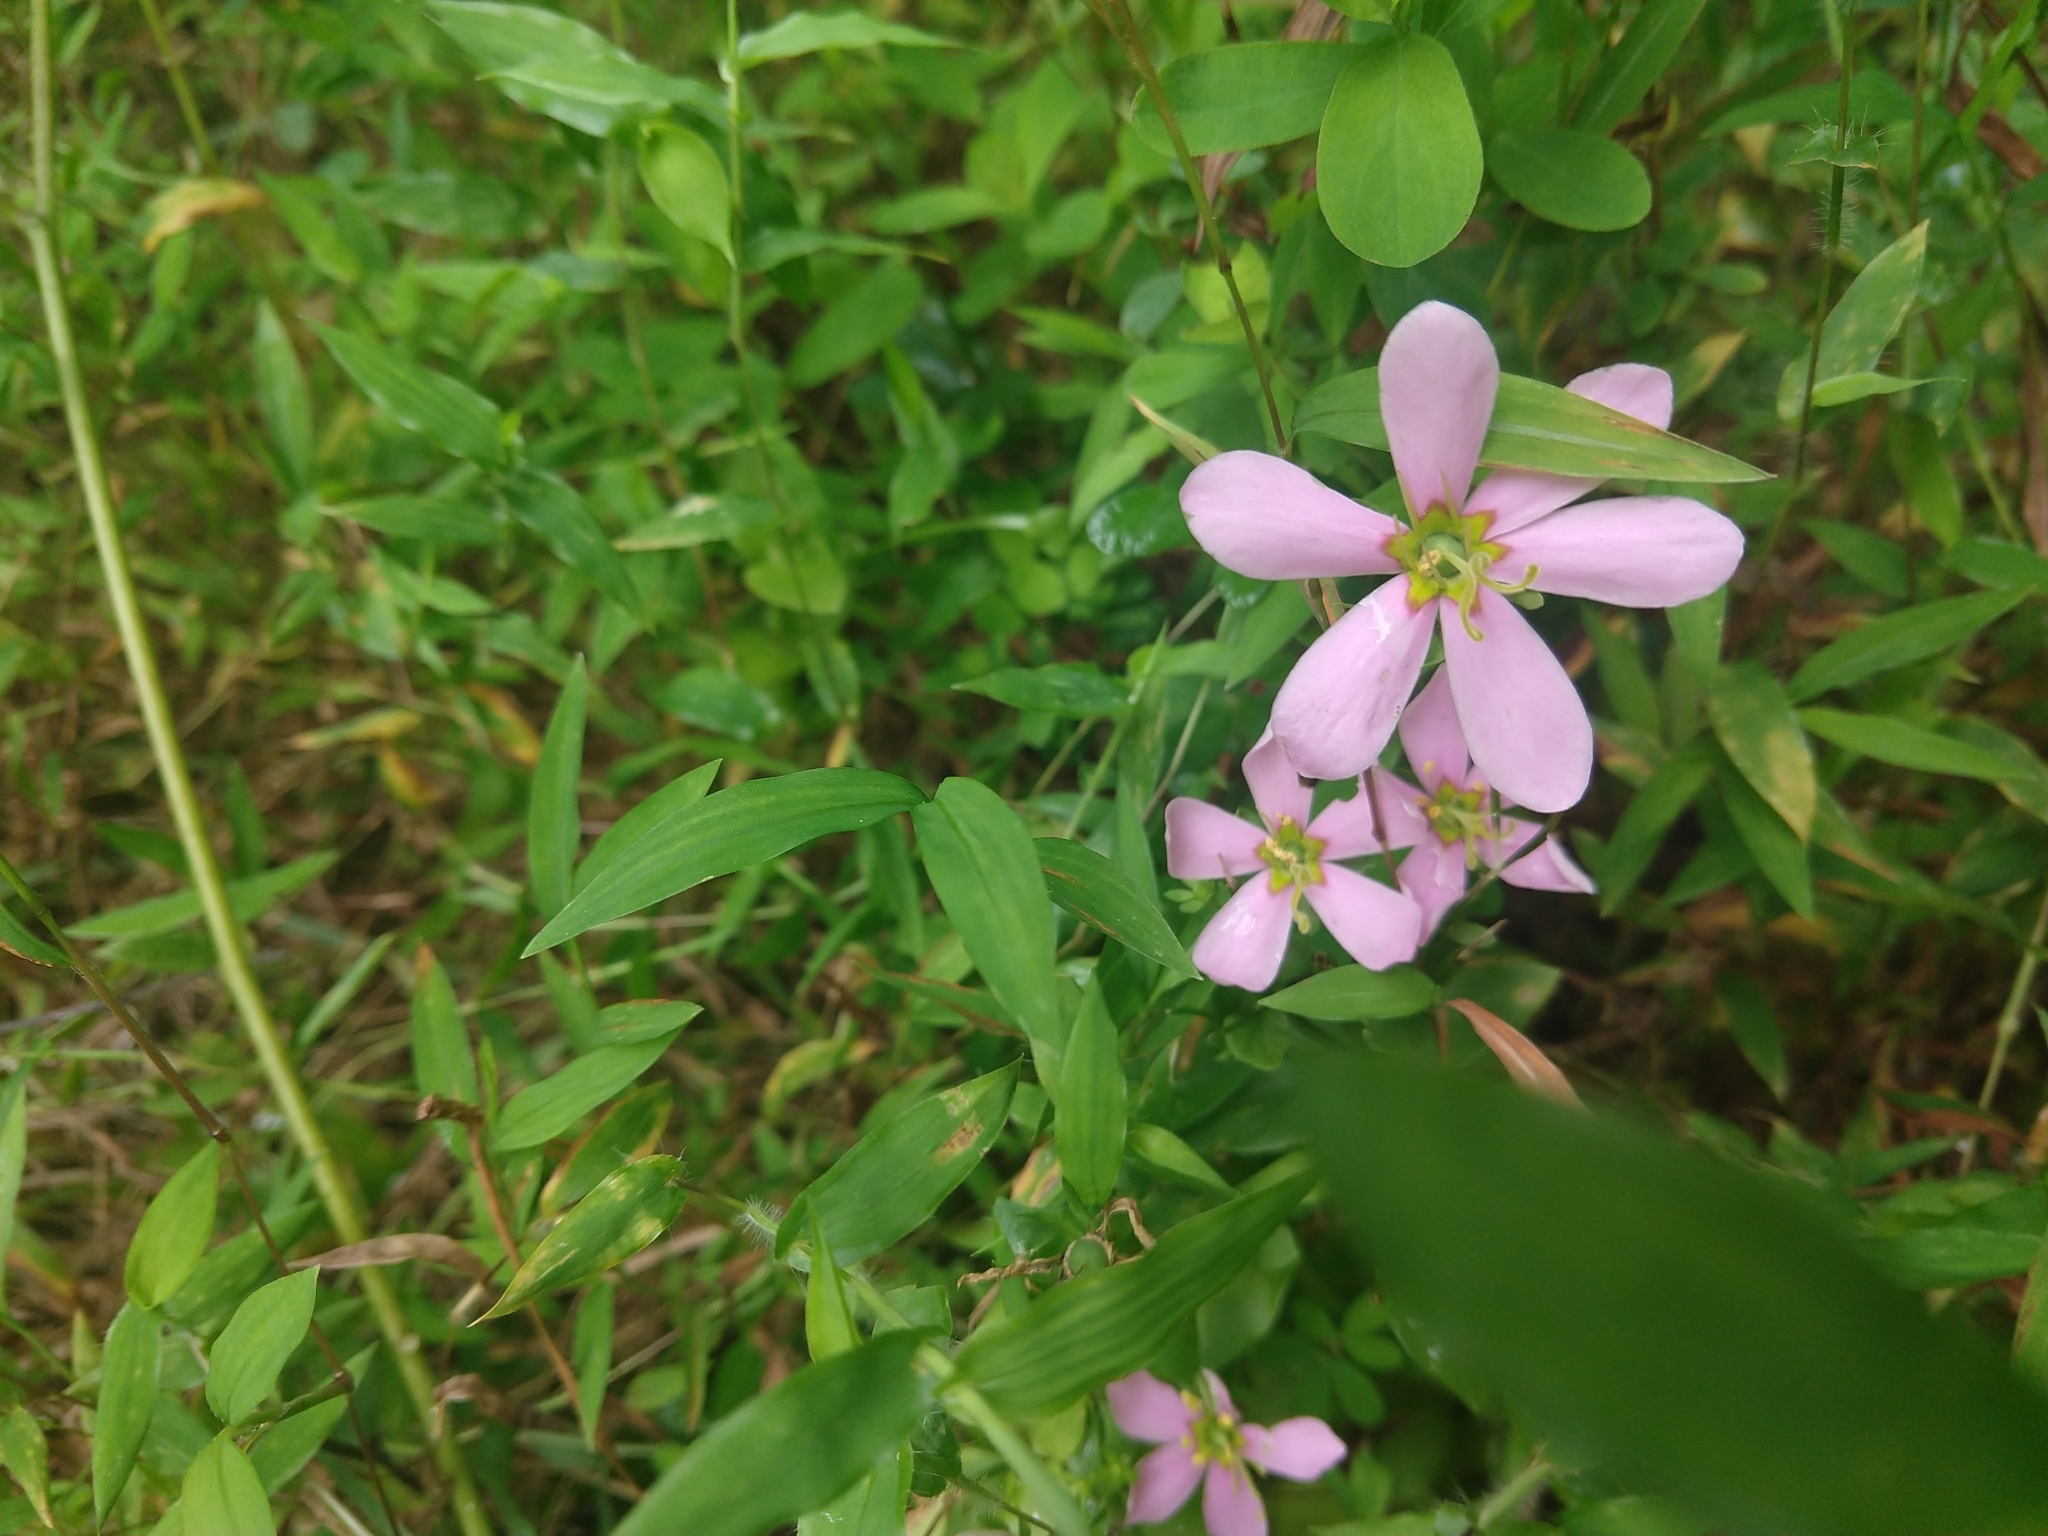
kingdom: Plantae
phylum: Tracheophyta
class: Magnoliopsida
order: Gentianales
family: Gentianaceae
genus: Sabatia
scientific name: Sabatia angularis
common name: Rose-pink
